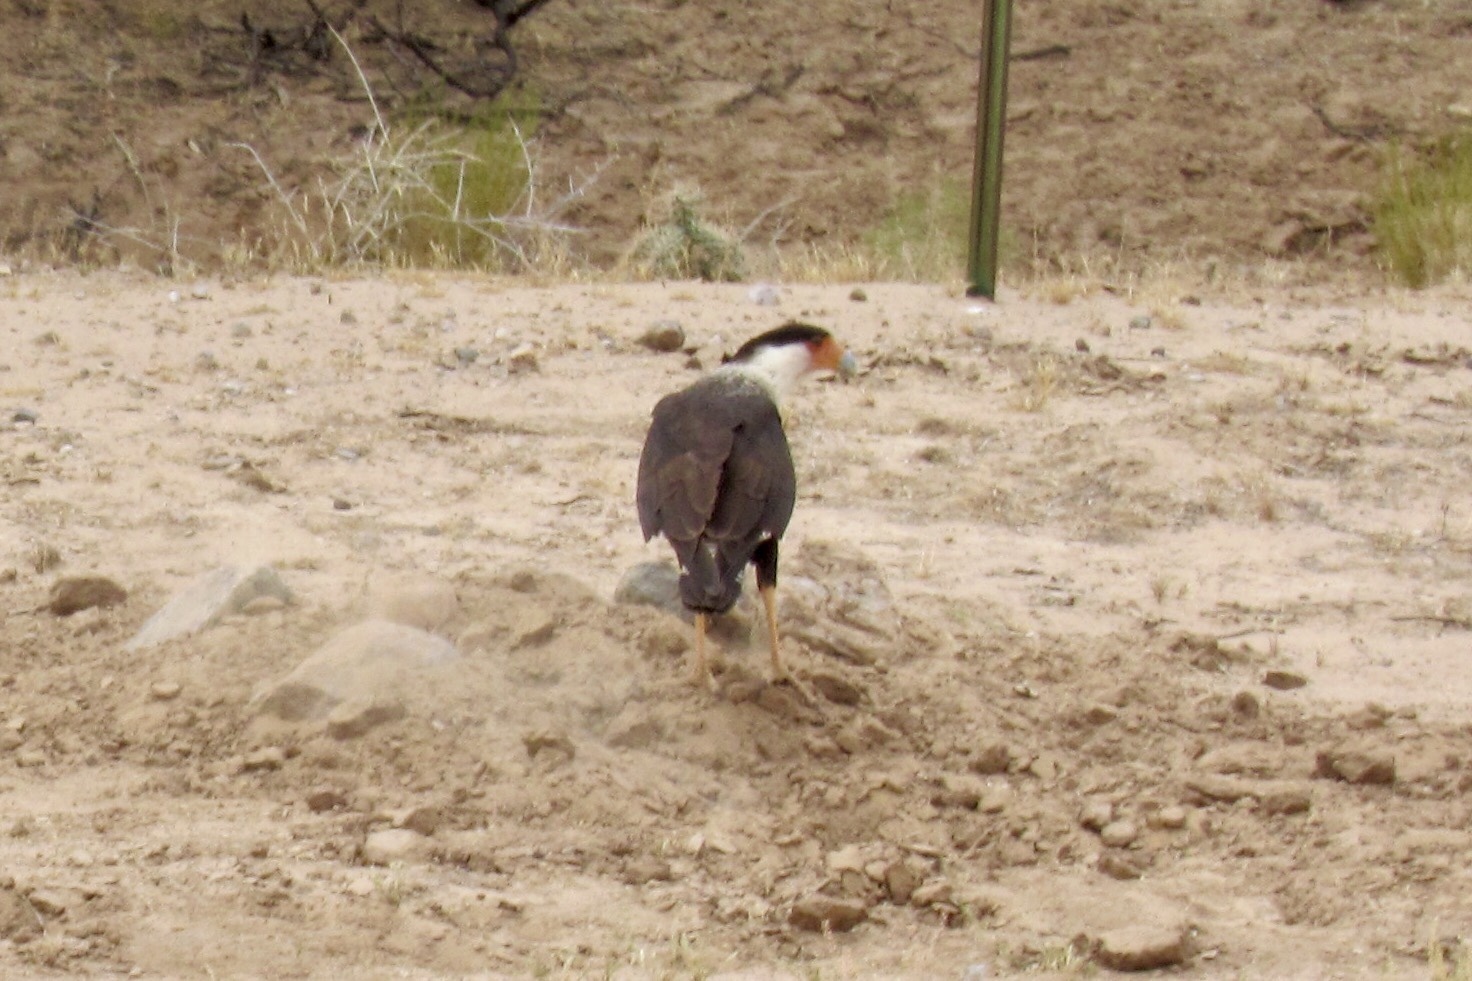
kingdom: Animalia
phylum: Chordata
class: Aves
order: Falconiformes
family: Falconidae
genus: Caracara
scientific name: Caracara plancus
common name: Southern caracara
